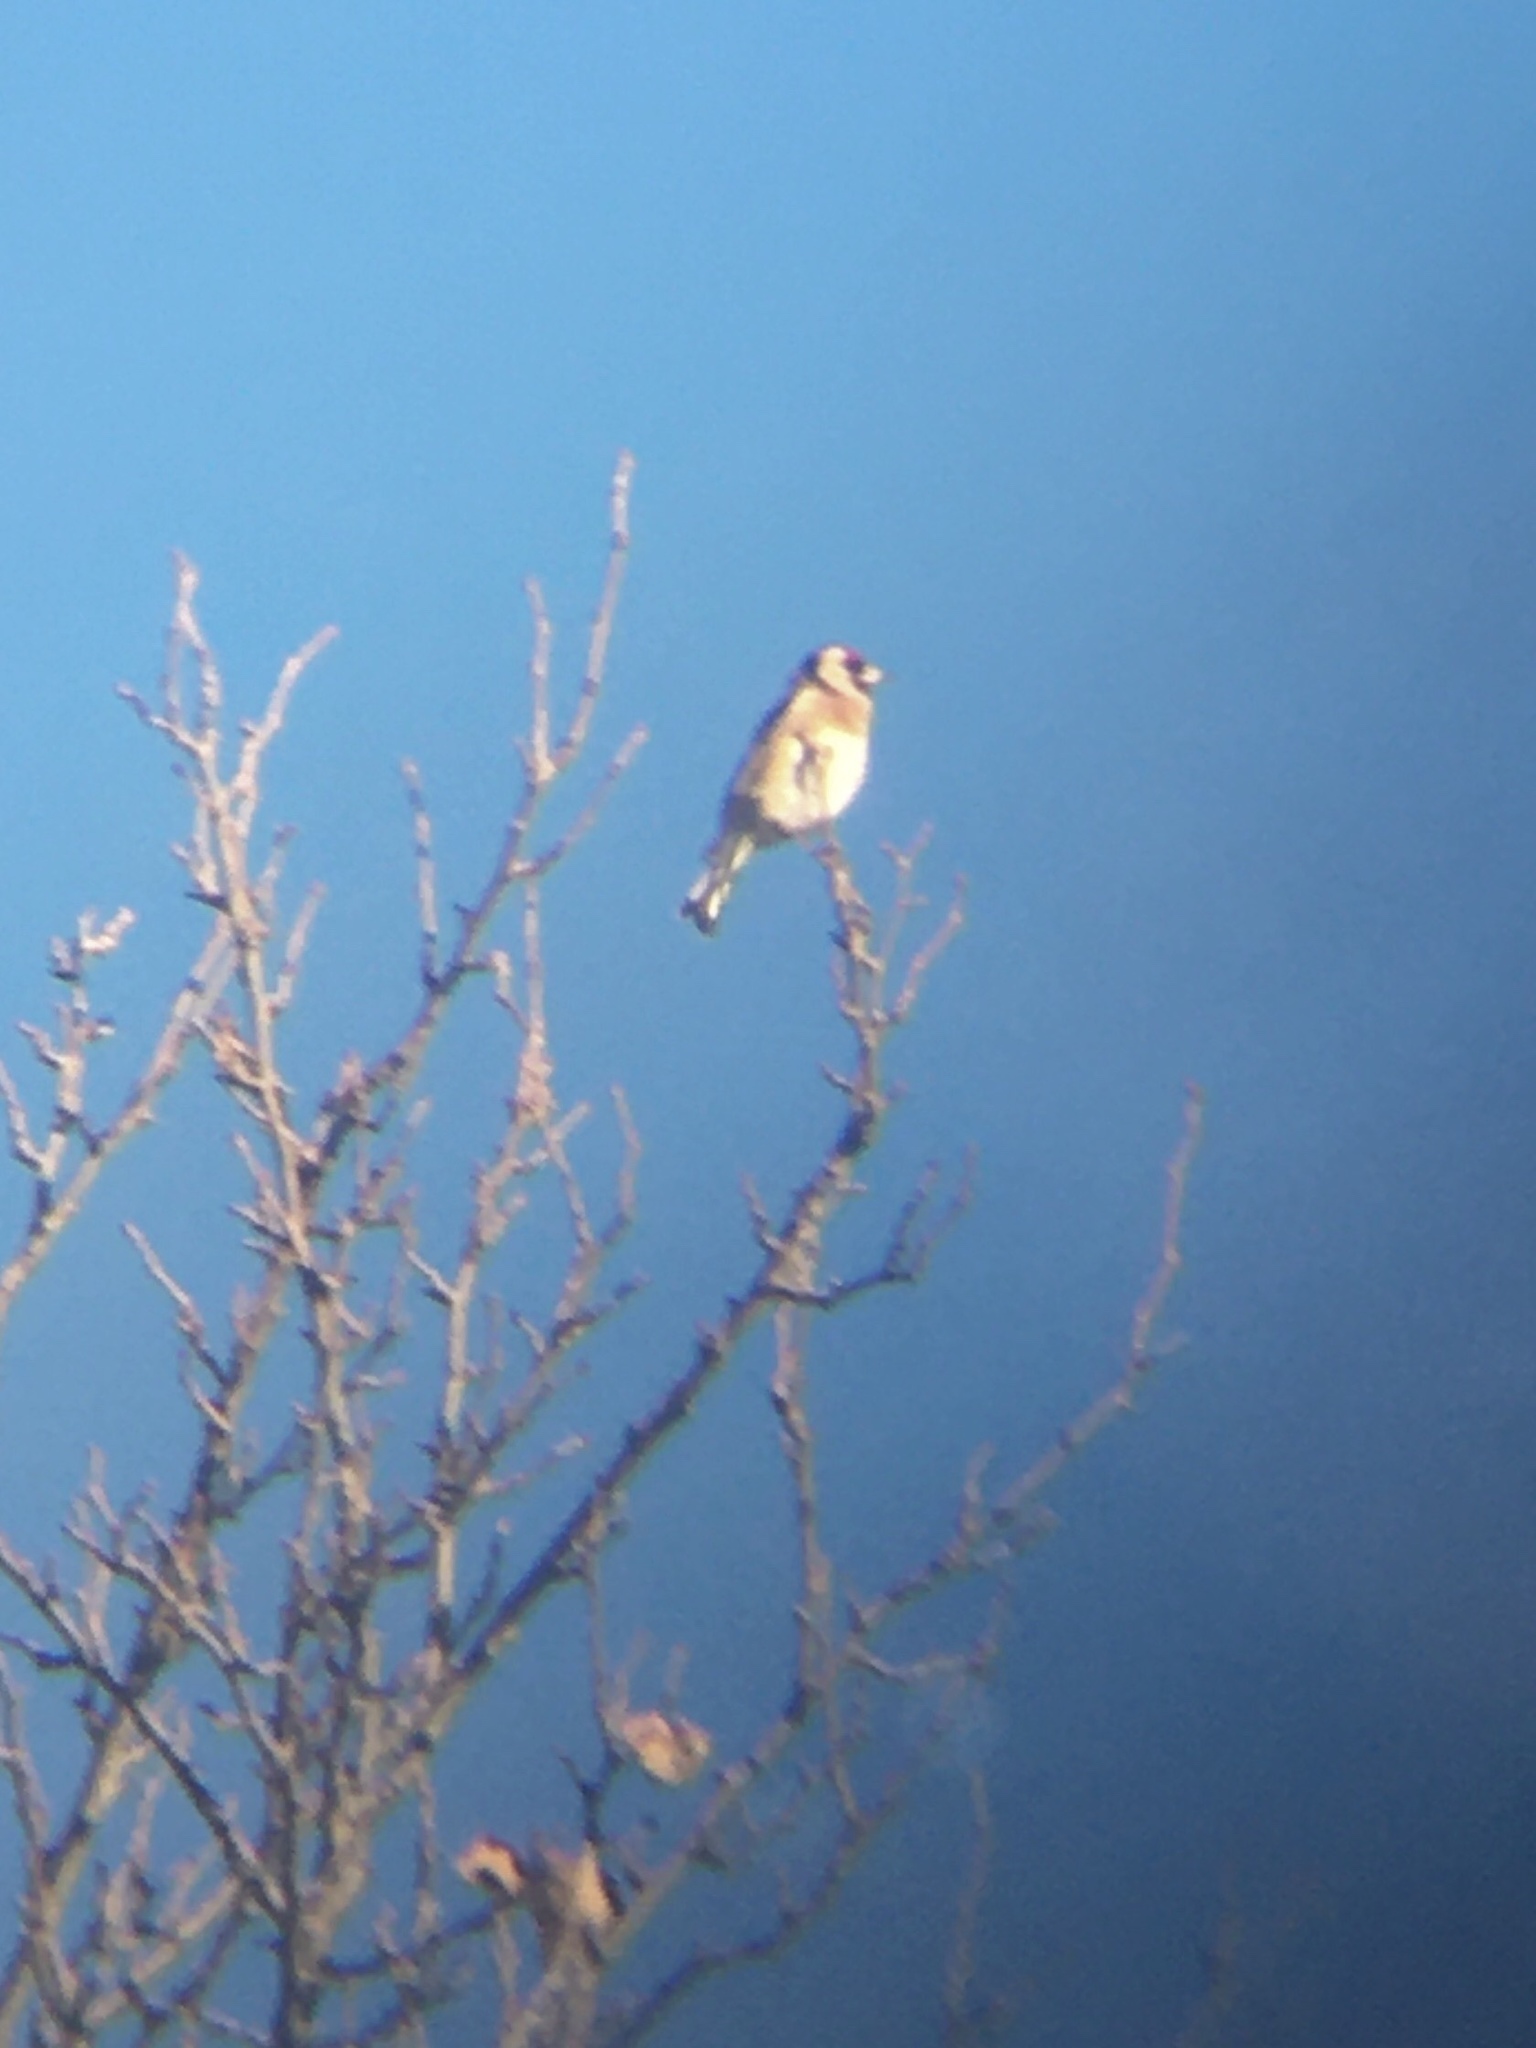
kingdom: Animalia
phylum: Chordata
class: Aves
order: Passeriformes
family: Fringillidae
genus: Carduelis
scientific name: Carduelis carduelis
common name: European goldfinch
